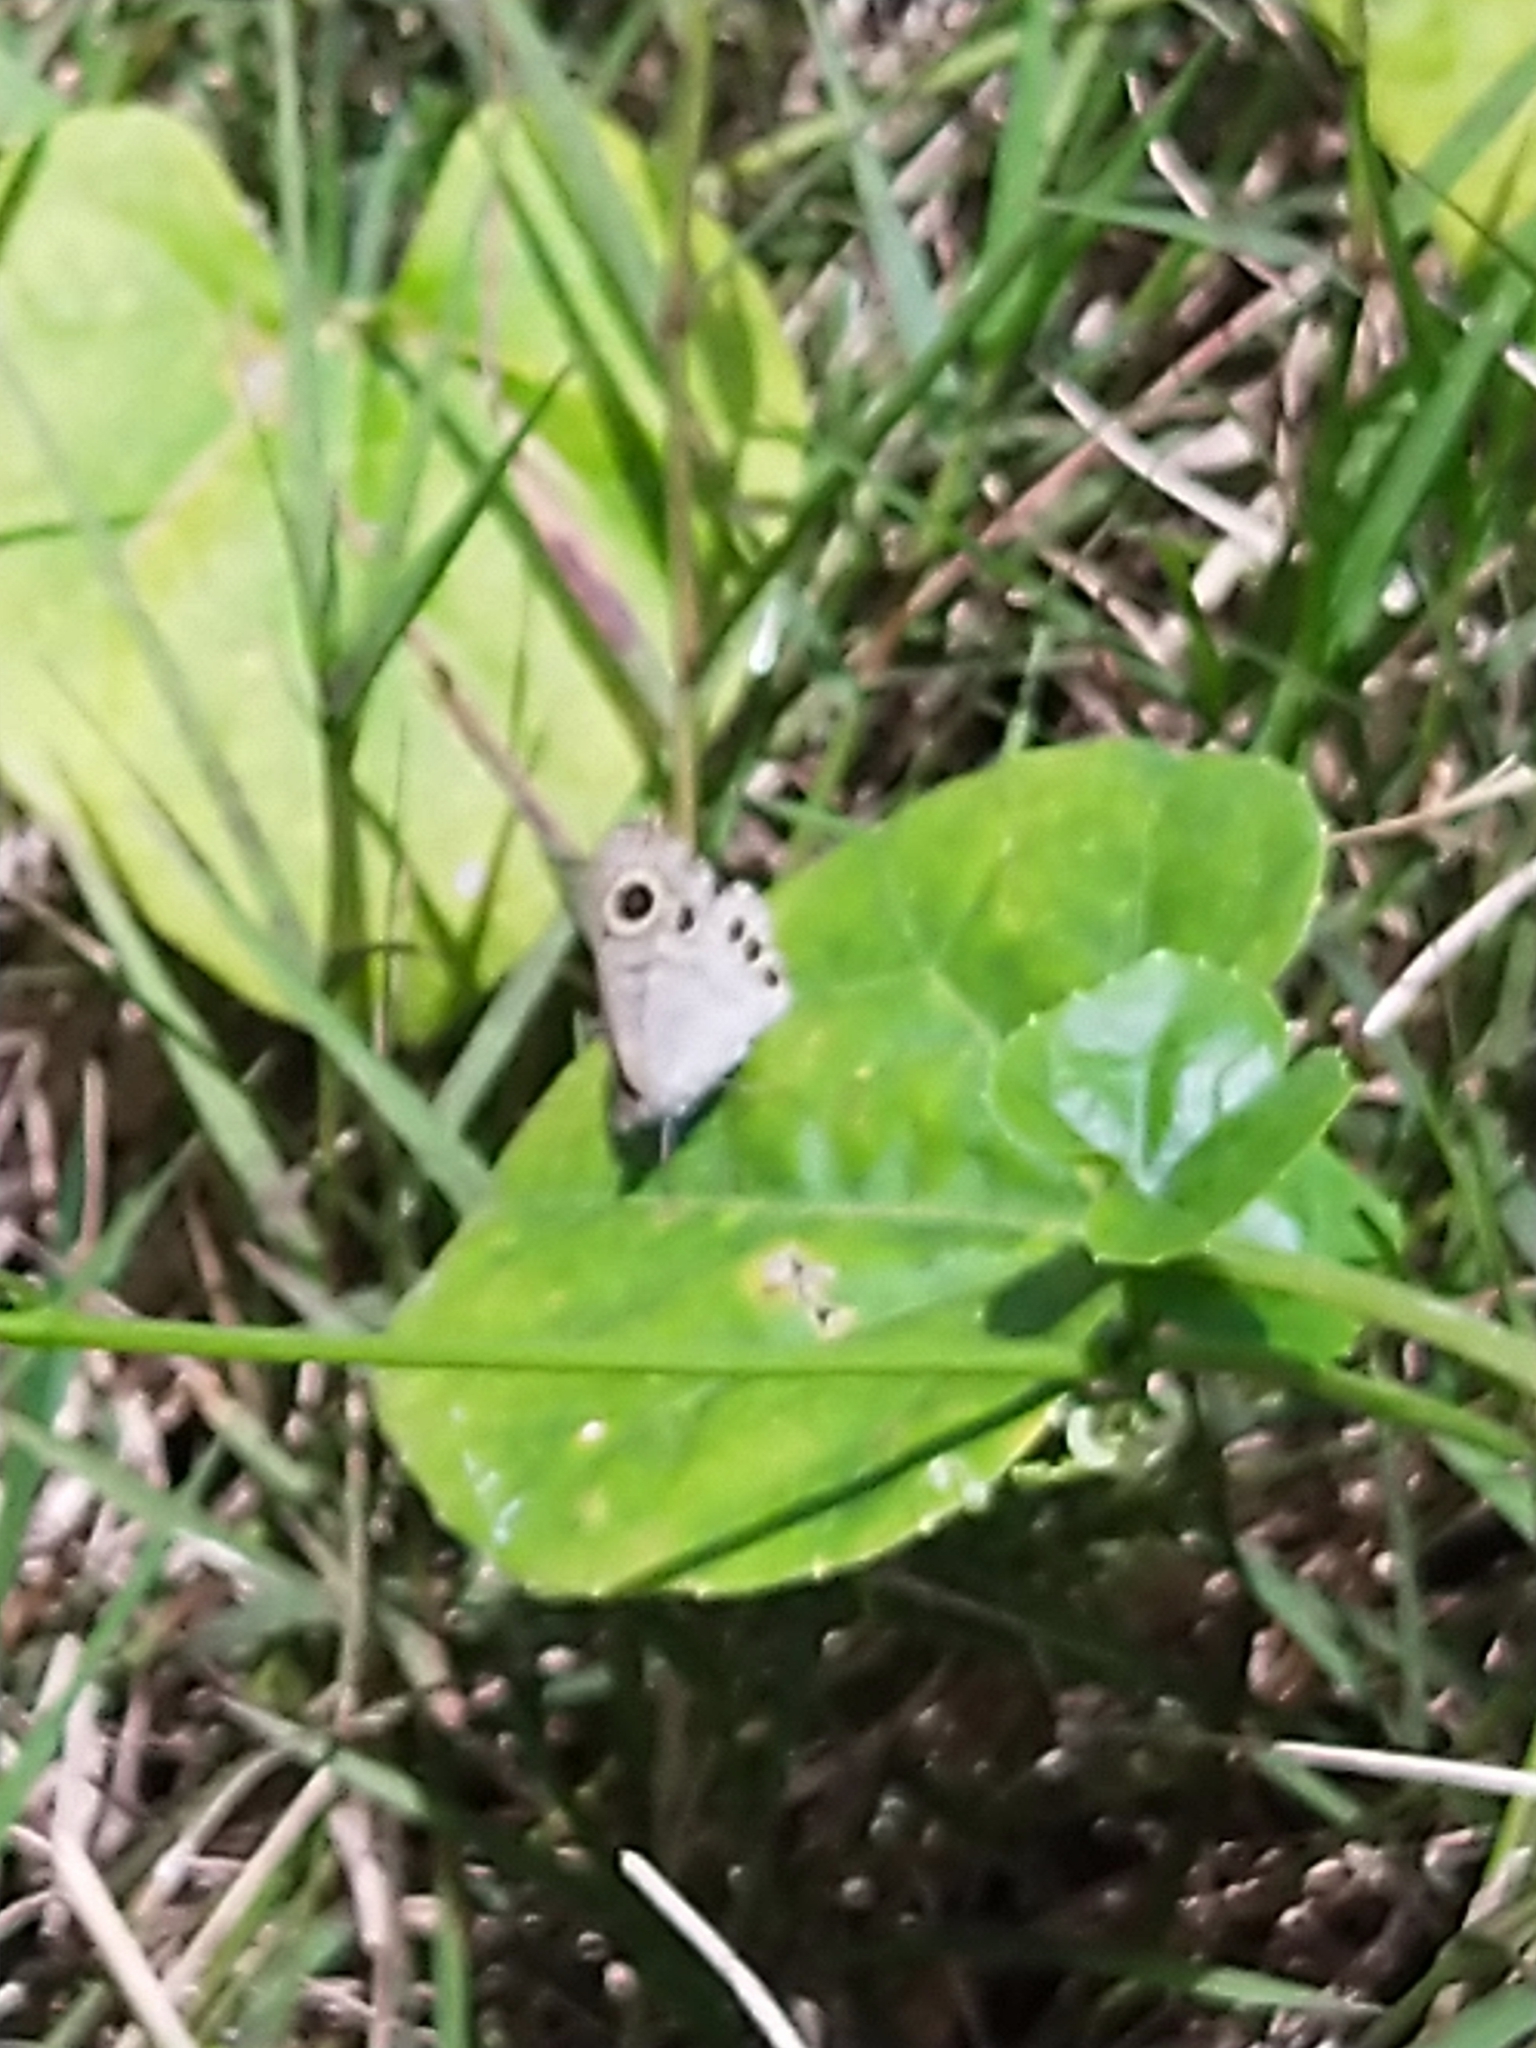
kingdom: Animalia
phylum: Arthropoda
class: Insecta
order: Lepidoptera
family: Nymphalidae
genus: Ypthima
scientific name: Ypthima huebneri
